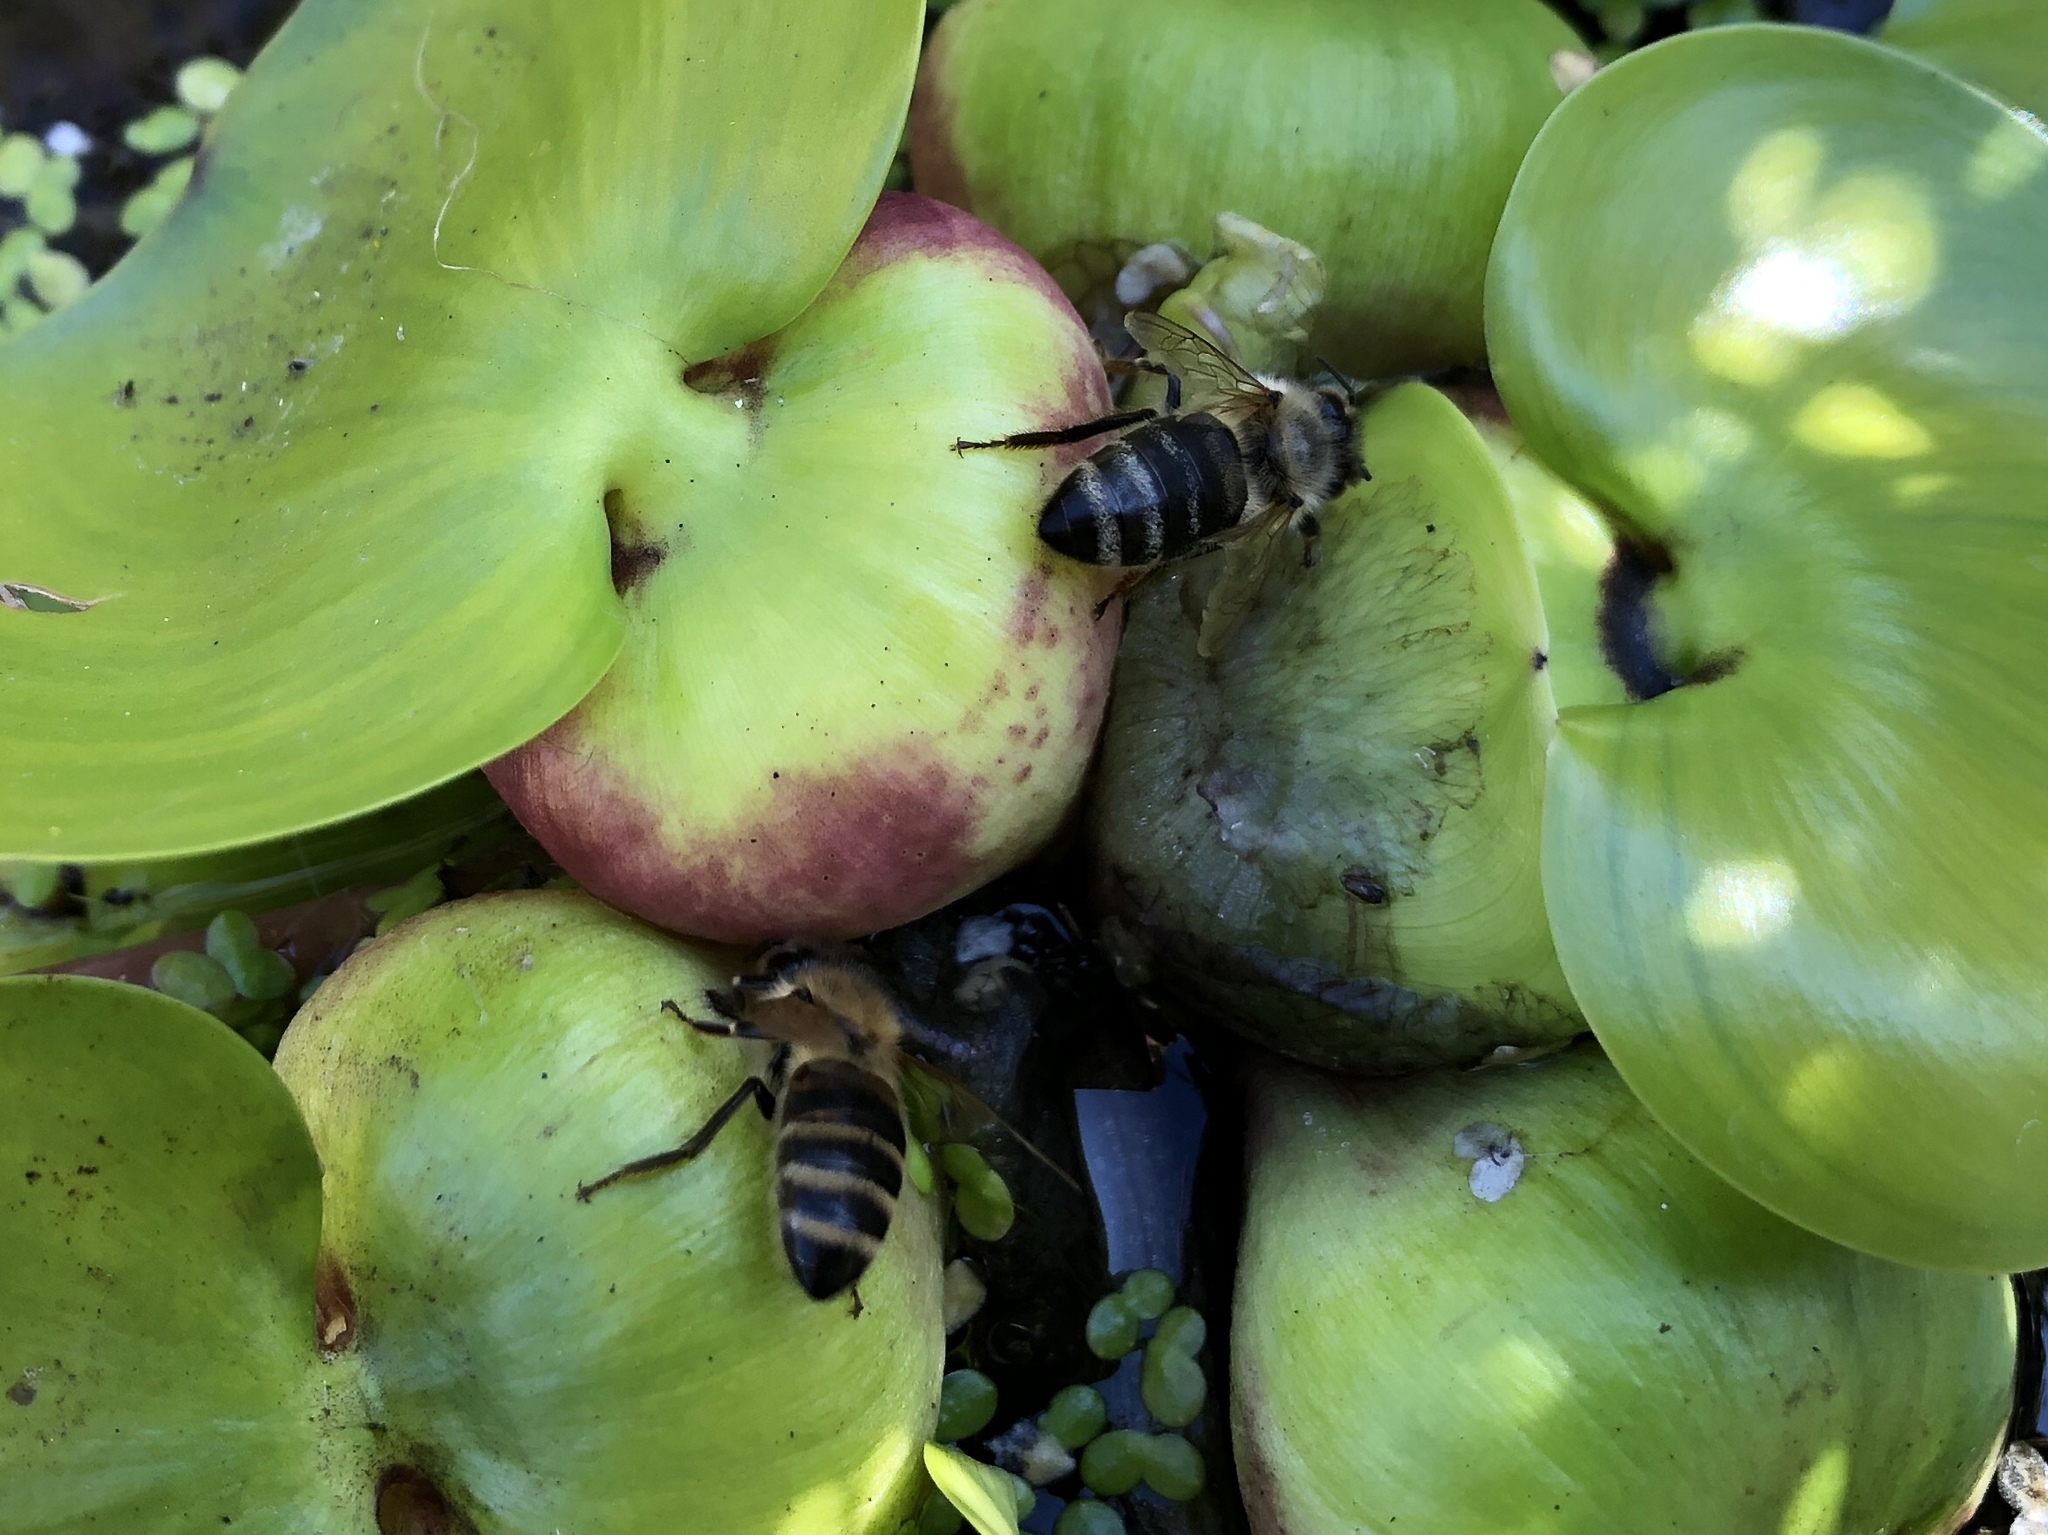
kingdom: Animalia
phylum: Arthropoda
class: Insecta
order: Hymenoptera
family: Apidae
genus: Apis
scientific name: Apis mellifera
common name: Honey bee
